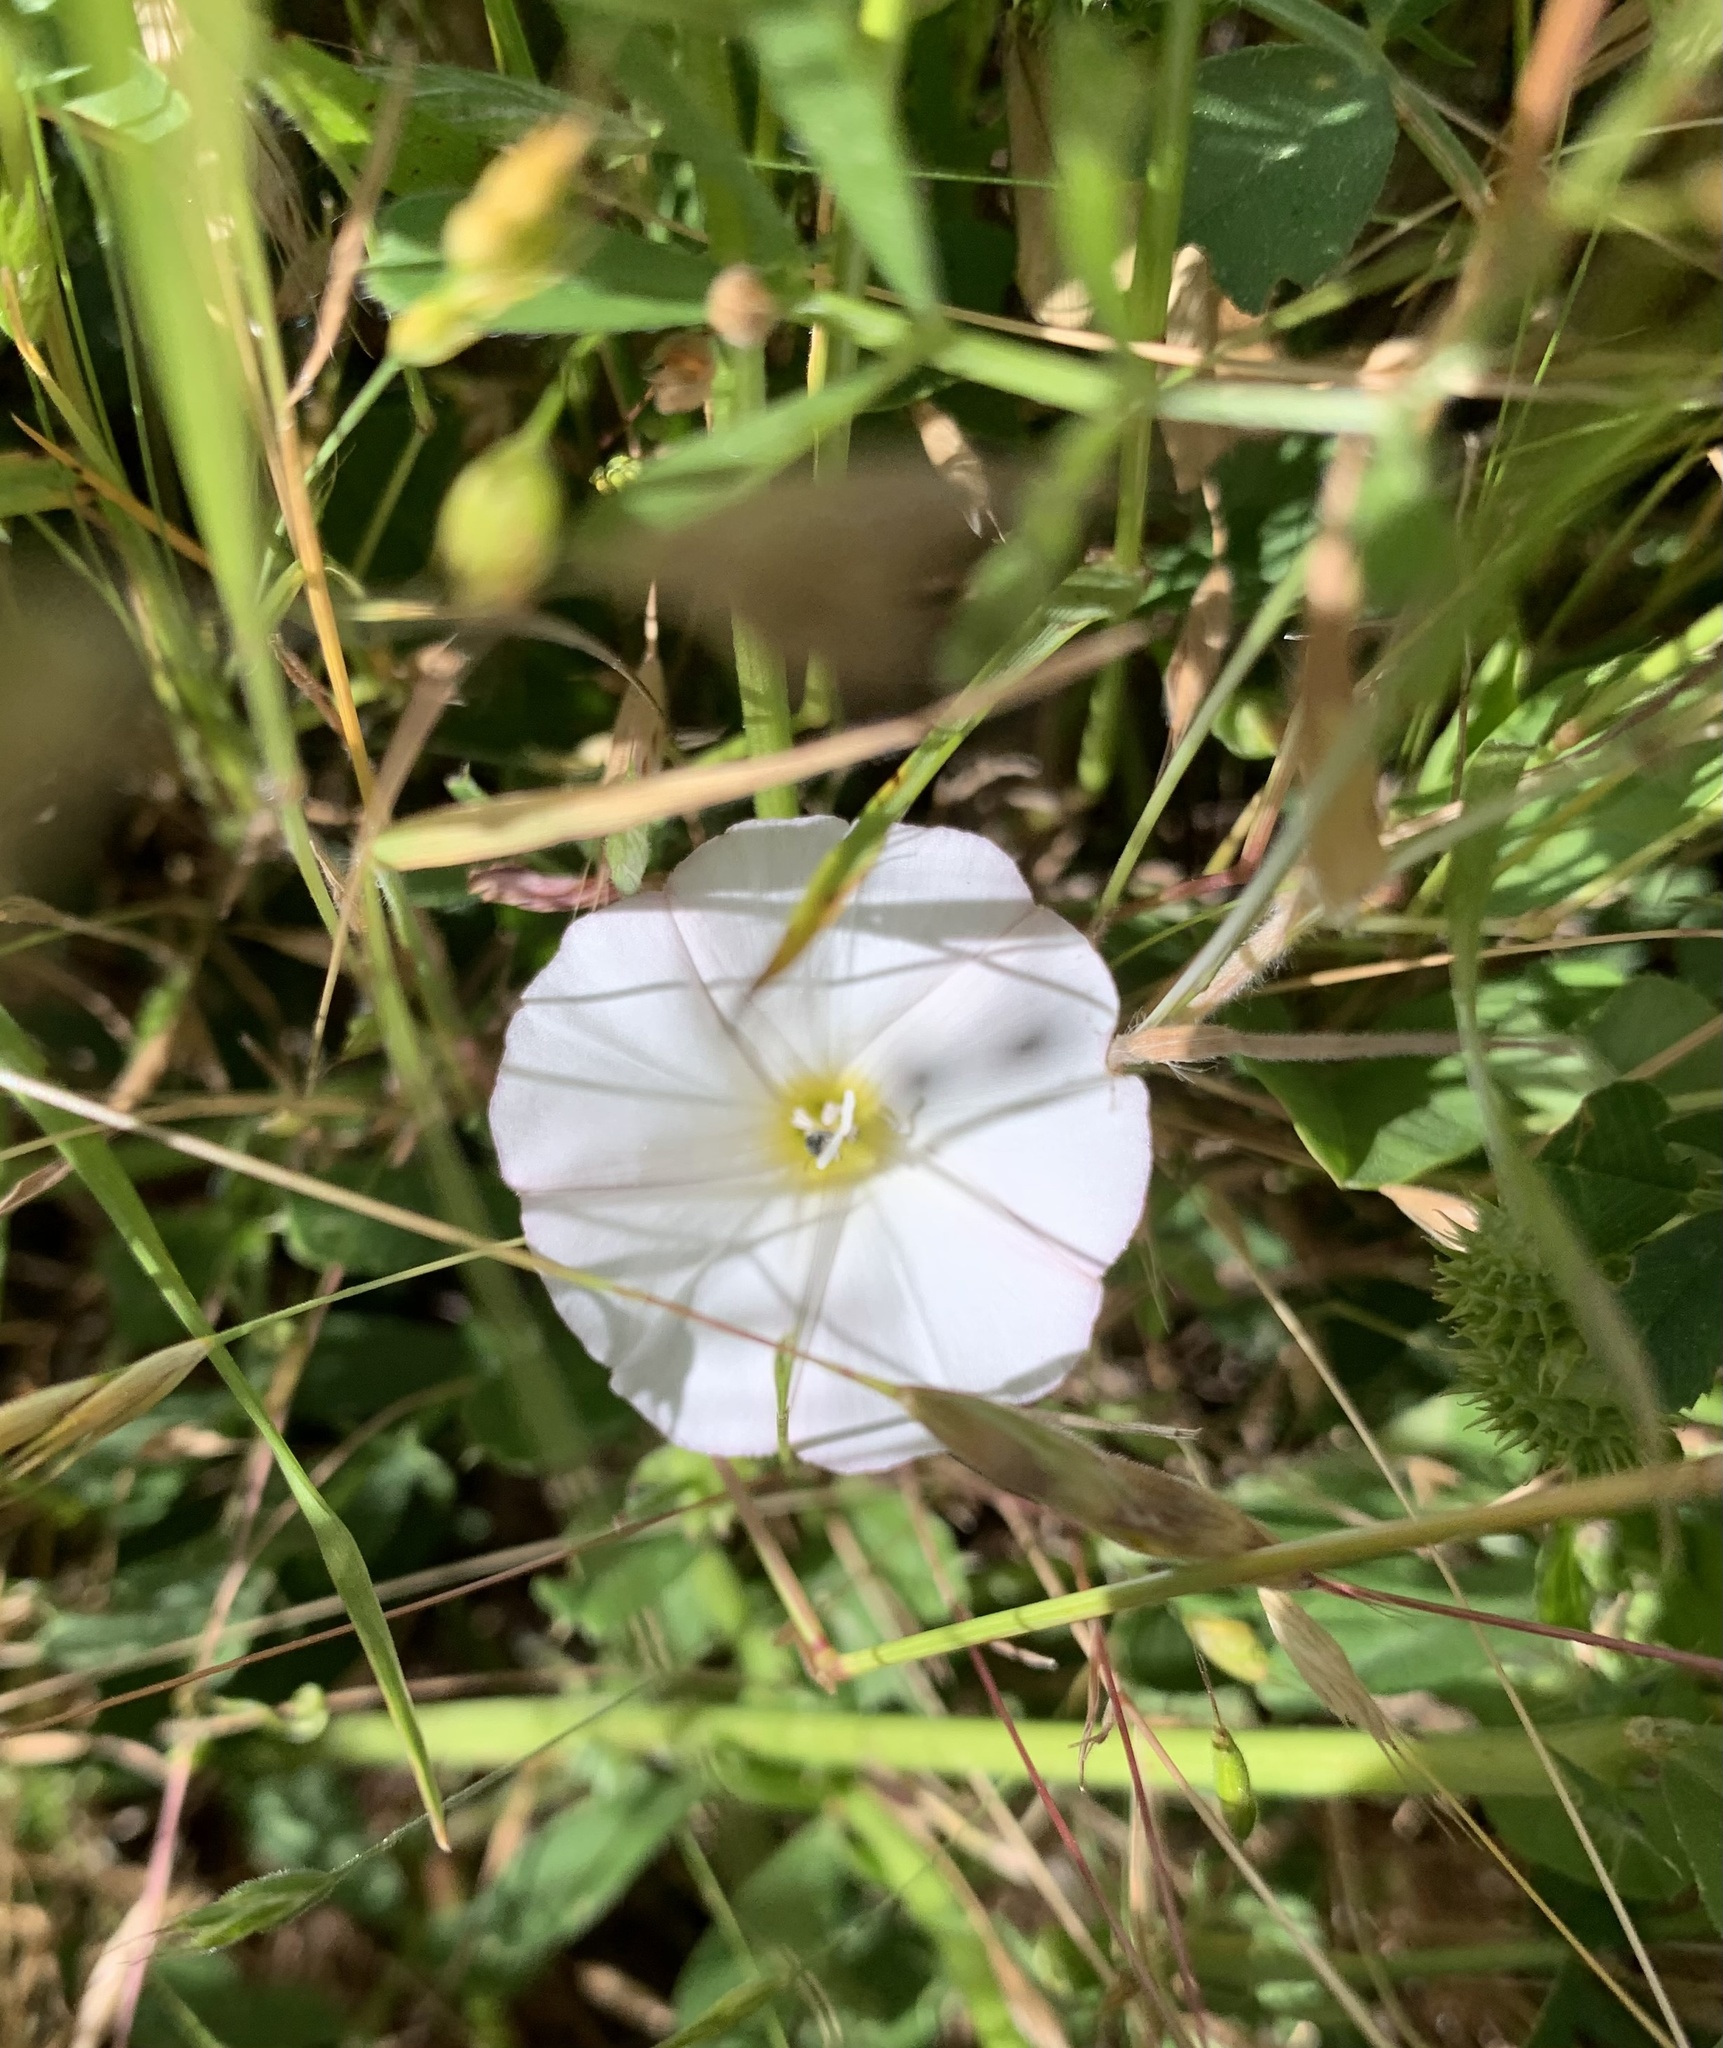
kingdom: Plantae
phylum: Tracheophyta
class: Magnoliopsida
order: Solanales
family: Convolvulaceae
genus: Convolvulus
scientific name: Convolvulus arvensis
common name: Field bindweed
